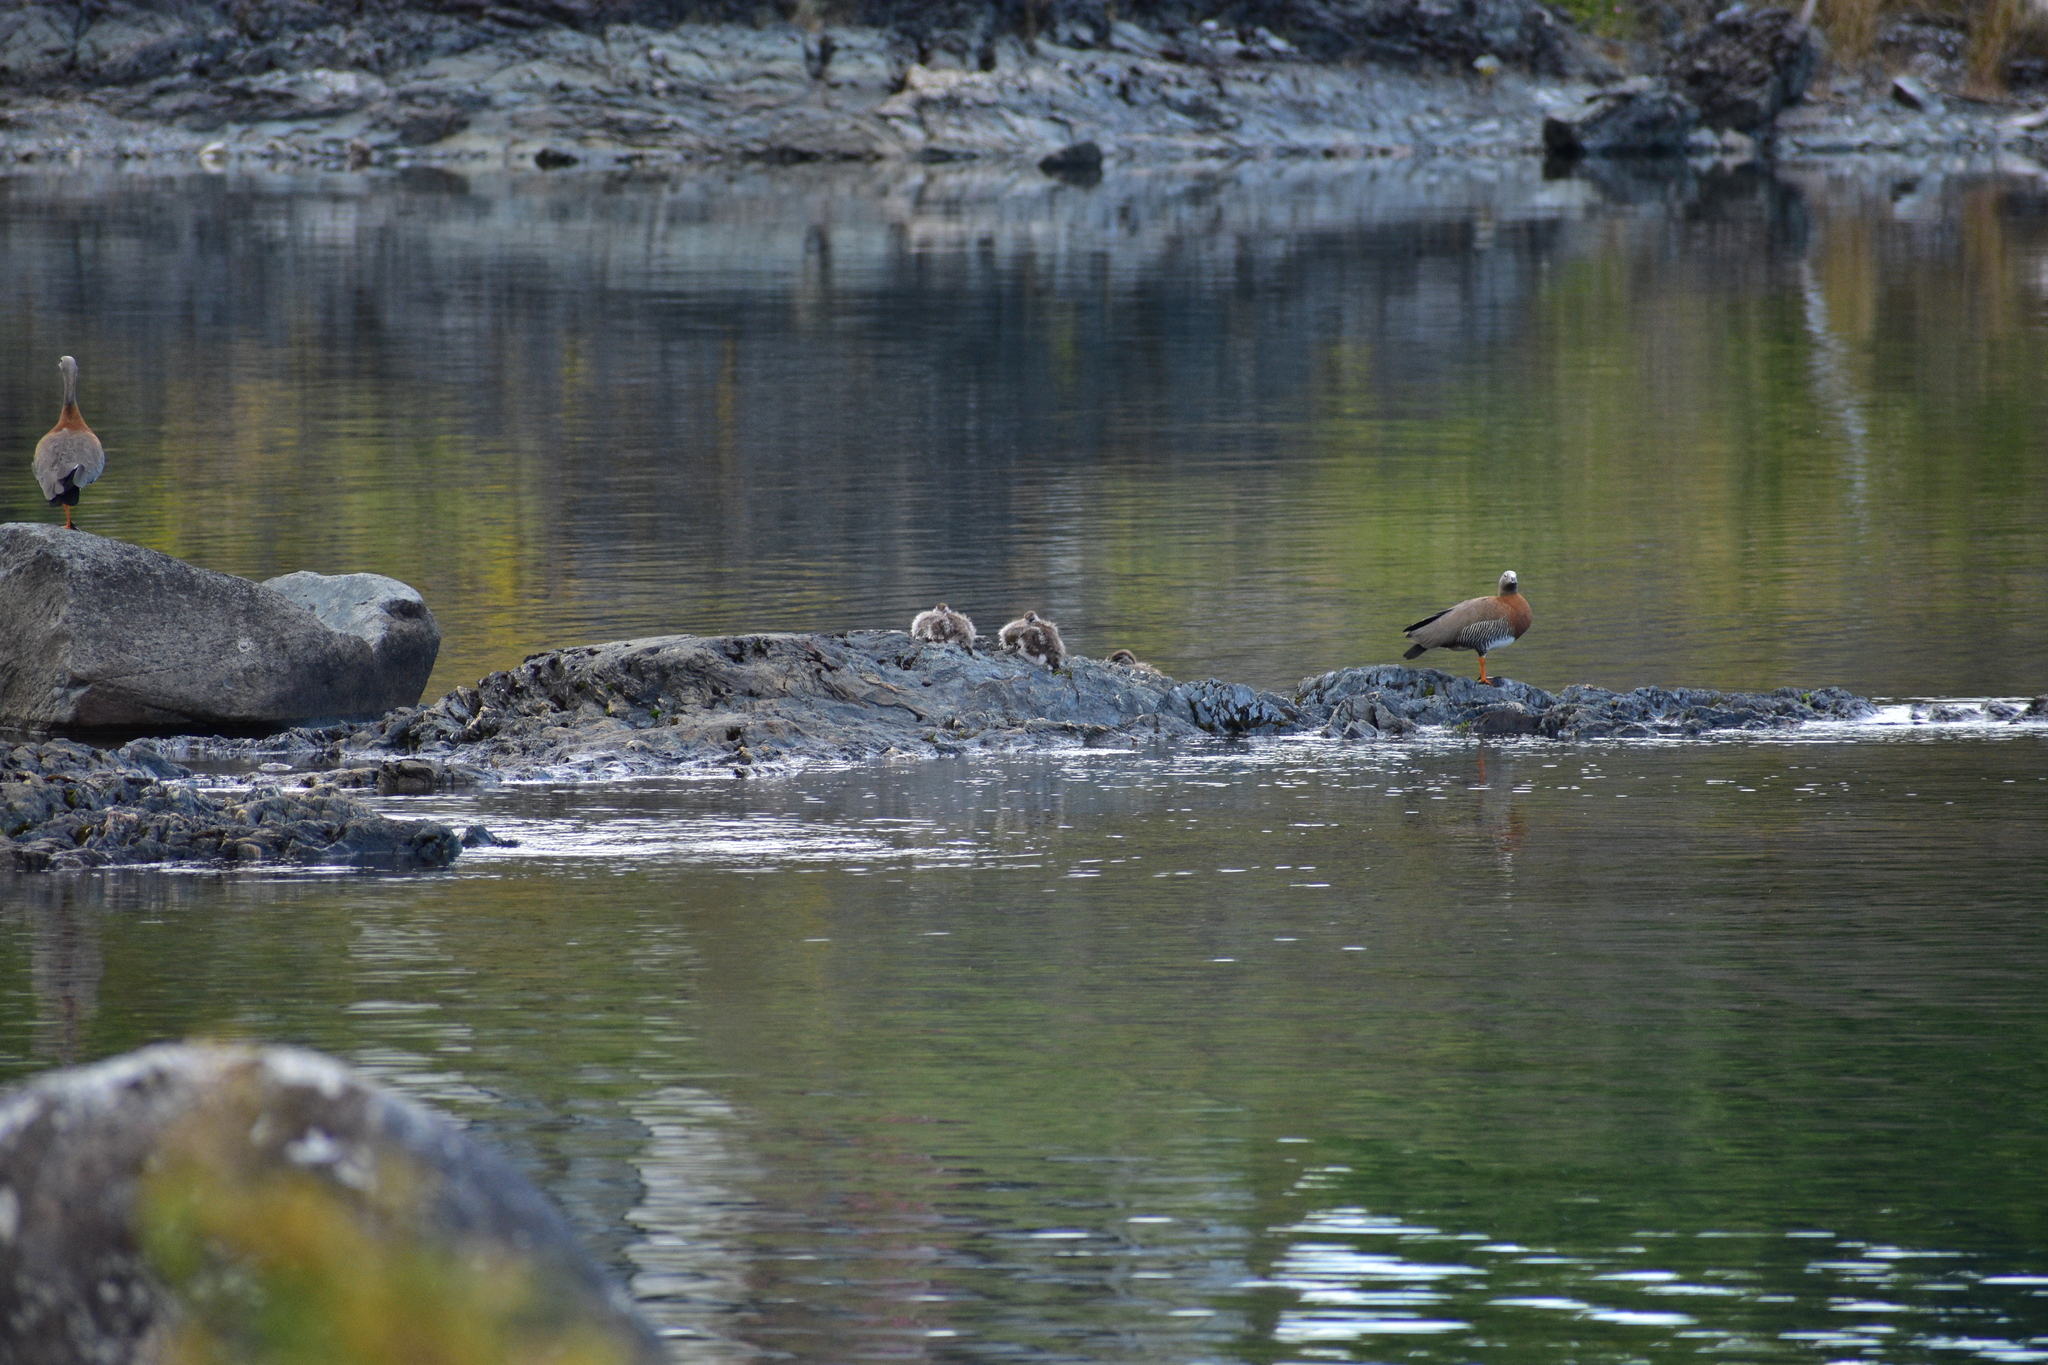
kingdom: Animalia
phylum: Chordata
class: Aves
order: Anseriformes
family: Anatidae
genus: Chloephaga
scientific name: Chloephaga poliocephala
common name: Ashy-headed goose
